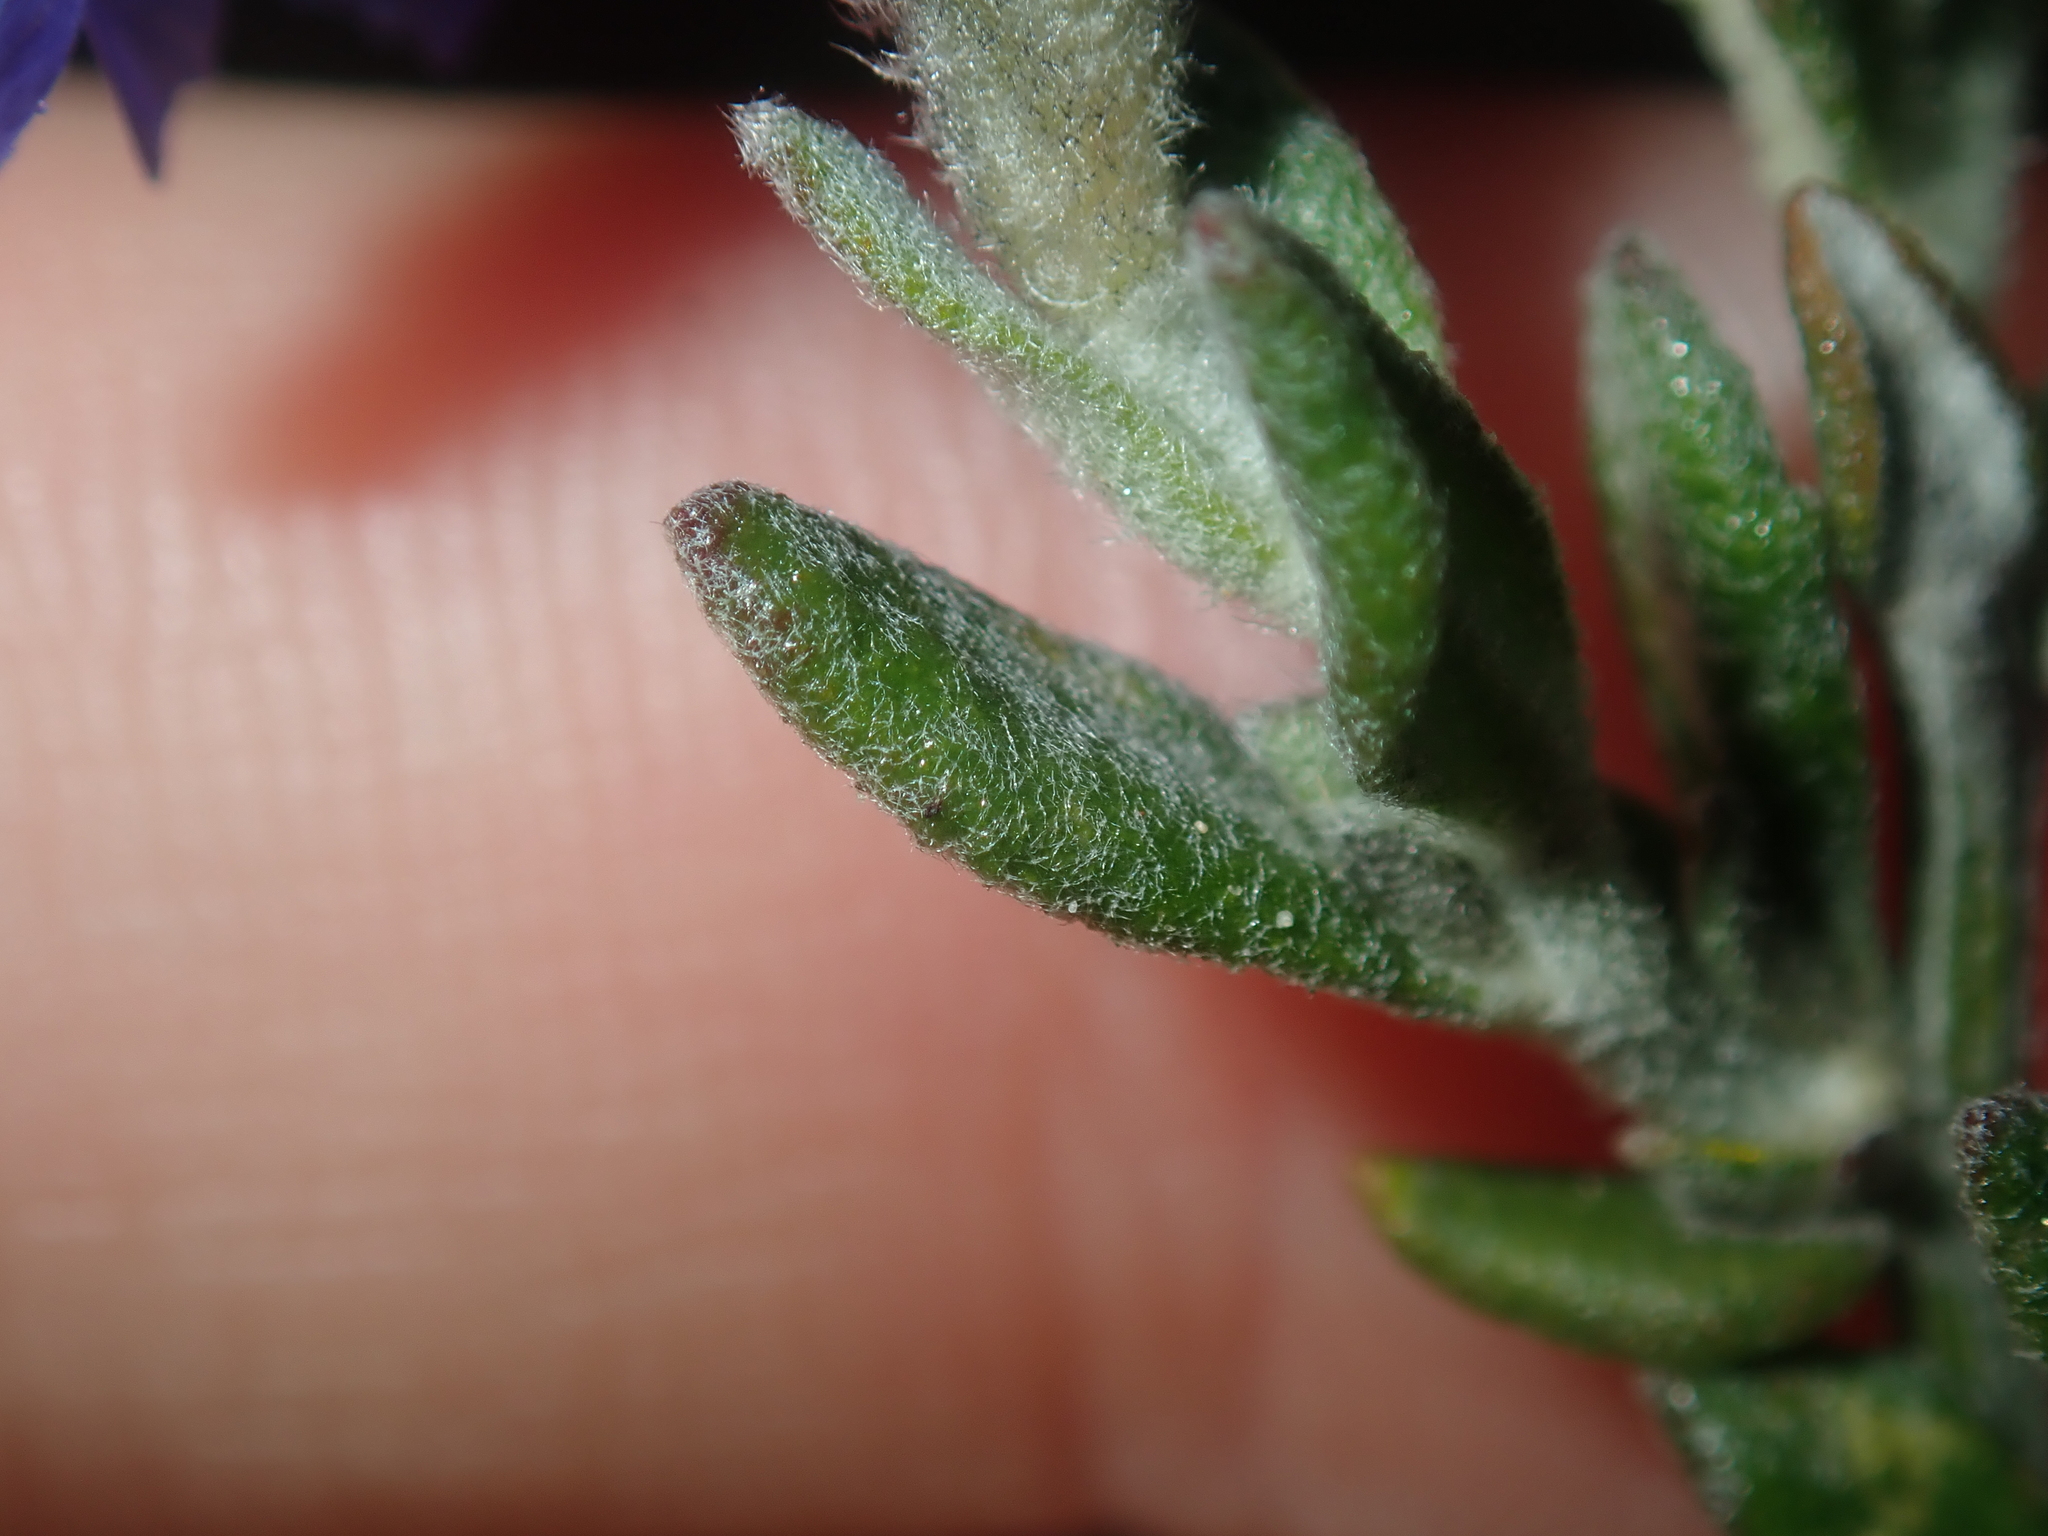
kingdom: Plantae
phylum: Tracheophyta
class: Magnoliopsida
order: Asterales
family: Goodeniaceae
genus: Dampiera
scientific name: Dampiera lavandulacea
